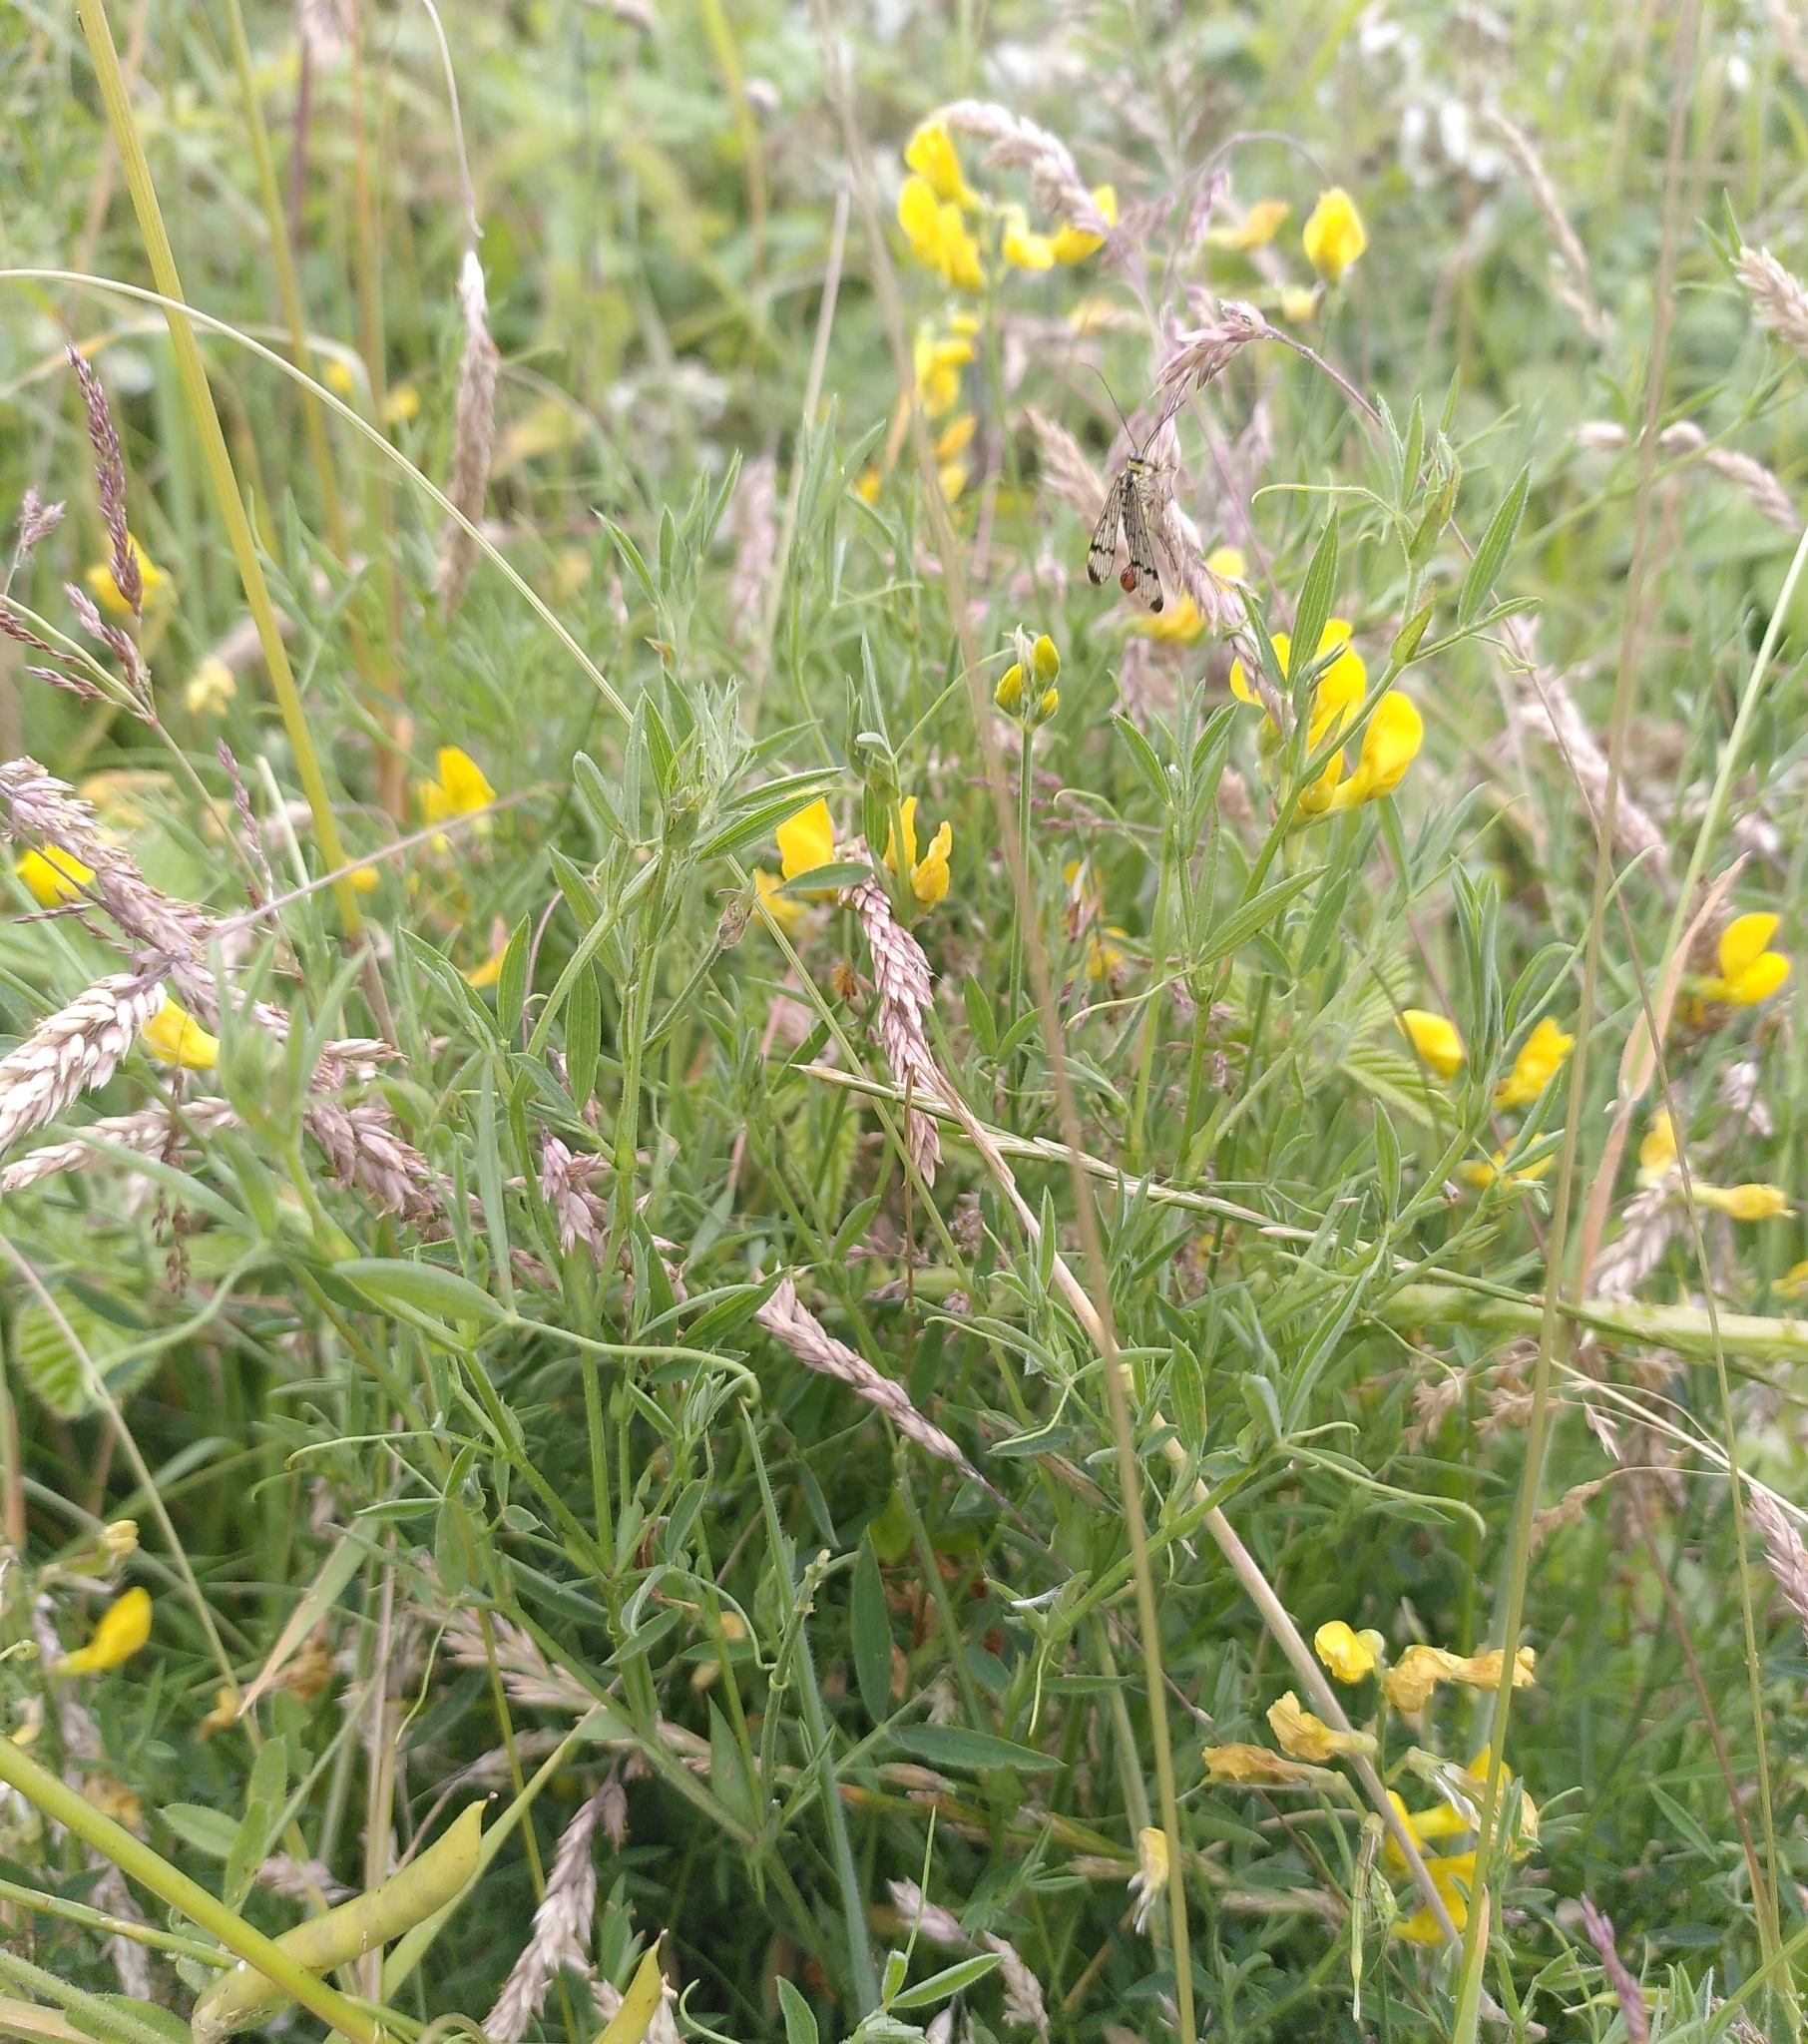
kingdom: Plantae
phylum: Tracheophyta
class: Magnoliopsida
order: Fabales
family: Fabaceae
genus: Lathyrus
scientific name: Lathyrus pratensis
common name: Meadow vetchling
